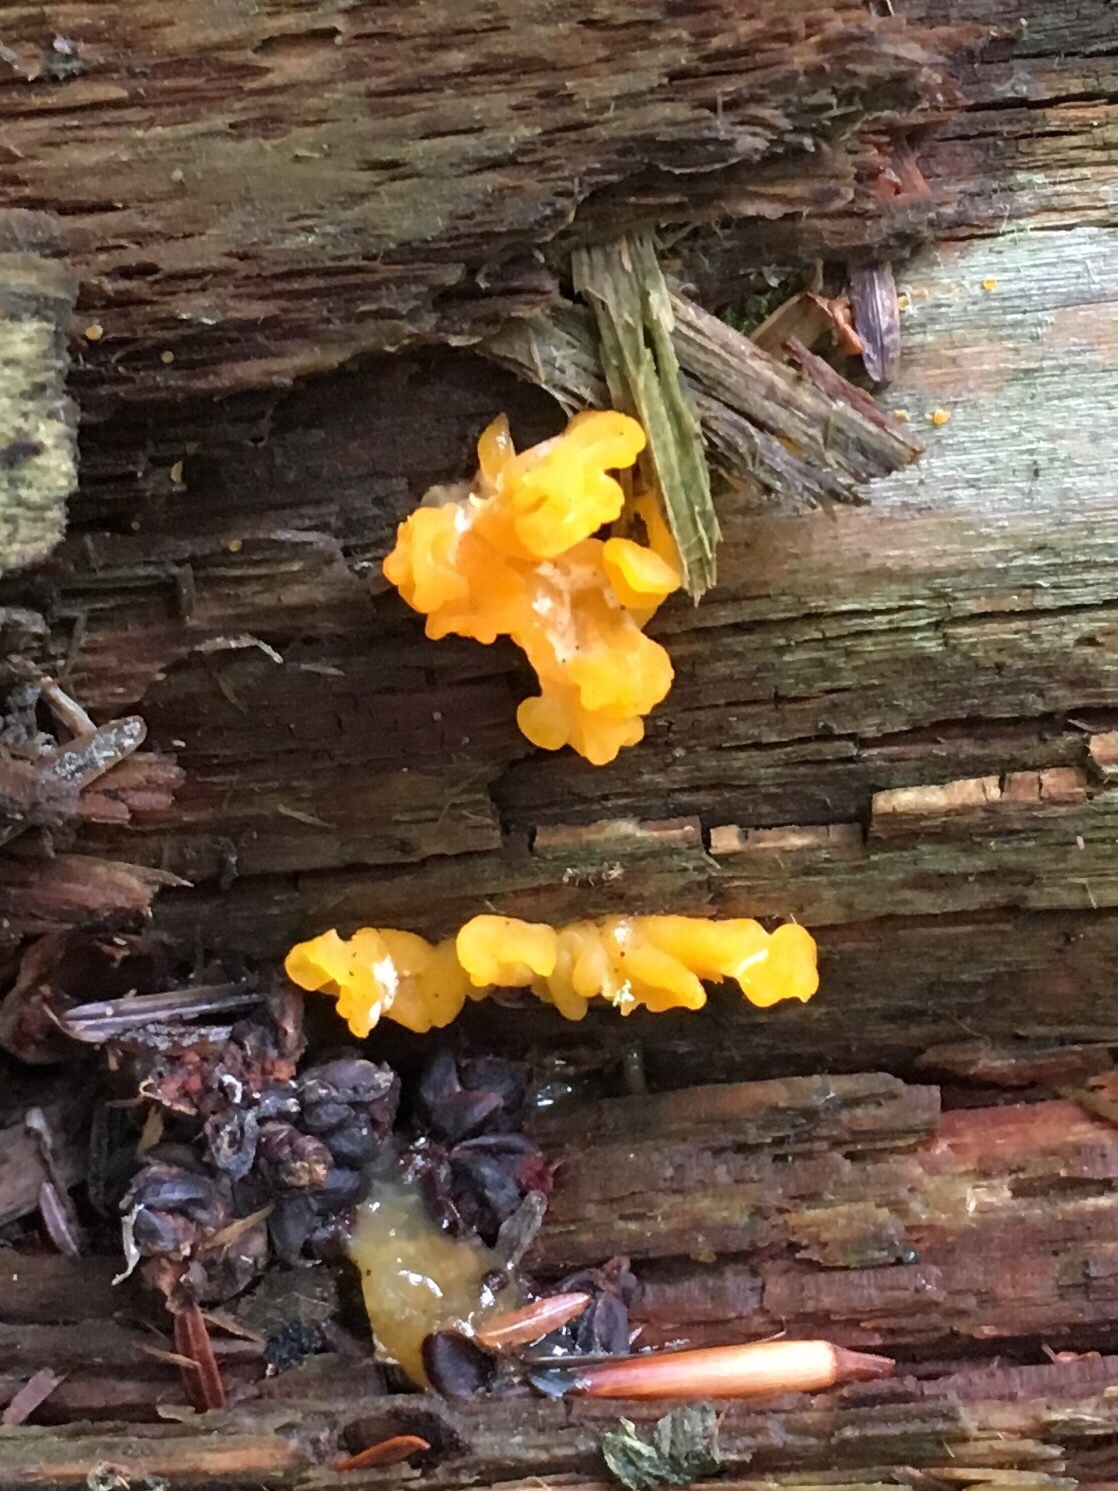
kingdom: Fungi
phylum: Basidiomycota
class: Dacrymycetes
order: Dacrymycetales
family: Dacrymycetaceae
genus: Dacrymyces
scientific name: Dacrymyces chrysospermus
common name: Orange jelly spot
